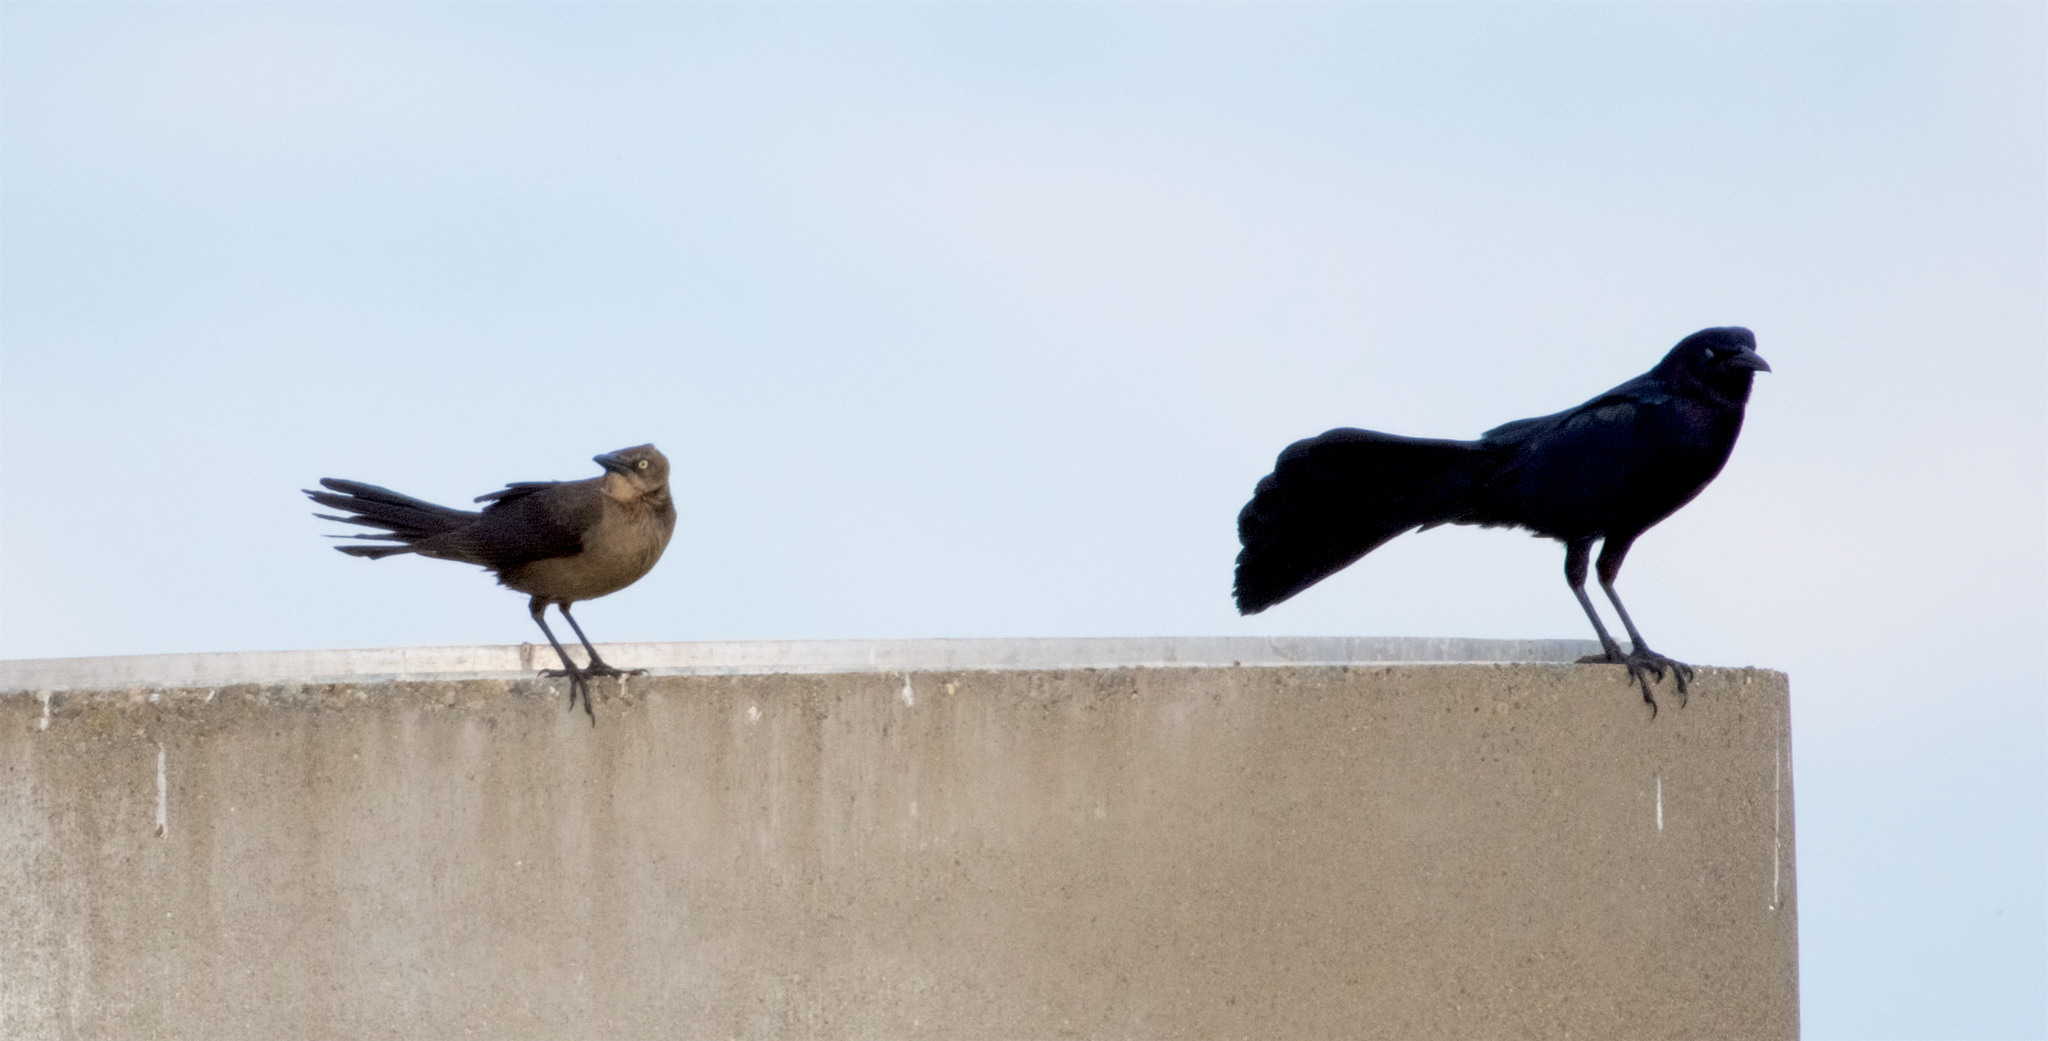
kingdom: Animalia
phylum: Chordata
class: Aves
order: Passeriformes
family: Icteridae
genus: Quiscalus
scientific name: Quiscalus mexicanus
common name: Great-tailed grackle
